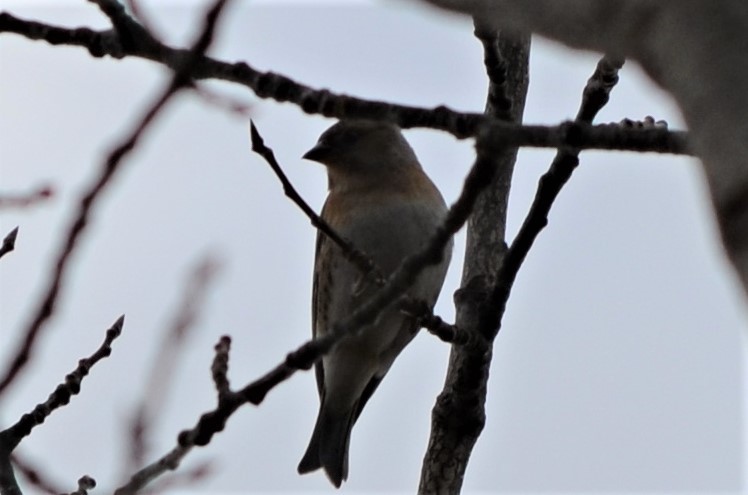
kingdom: Animalia
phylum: Chordata
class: Aves
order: Passeriformes
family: Fringillidae
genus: Fringilla
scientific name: Fringilla montifringilla
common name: Brambling
